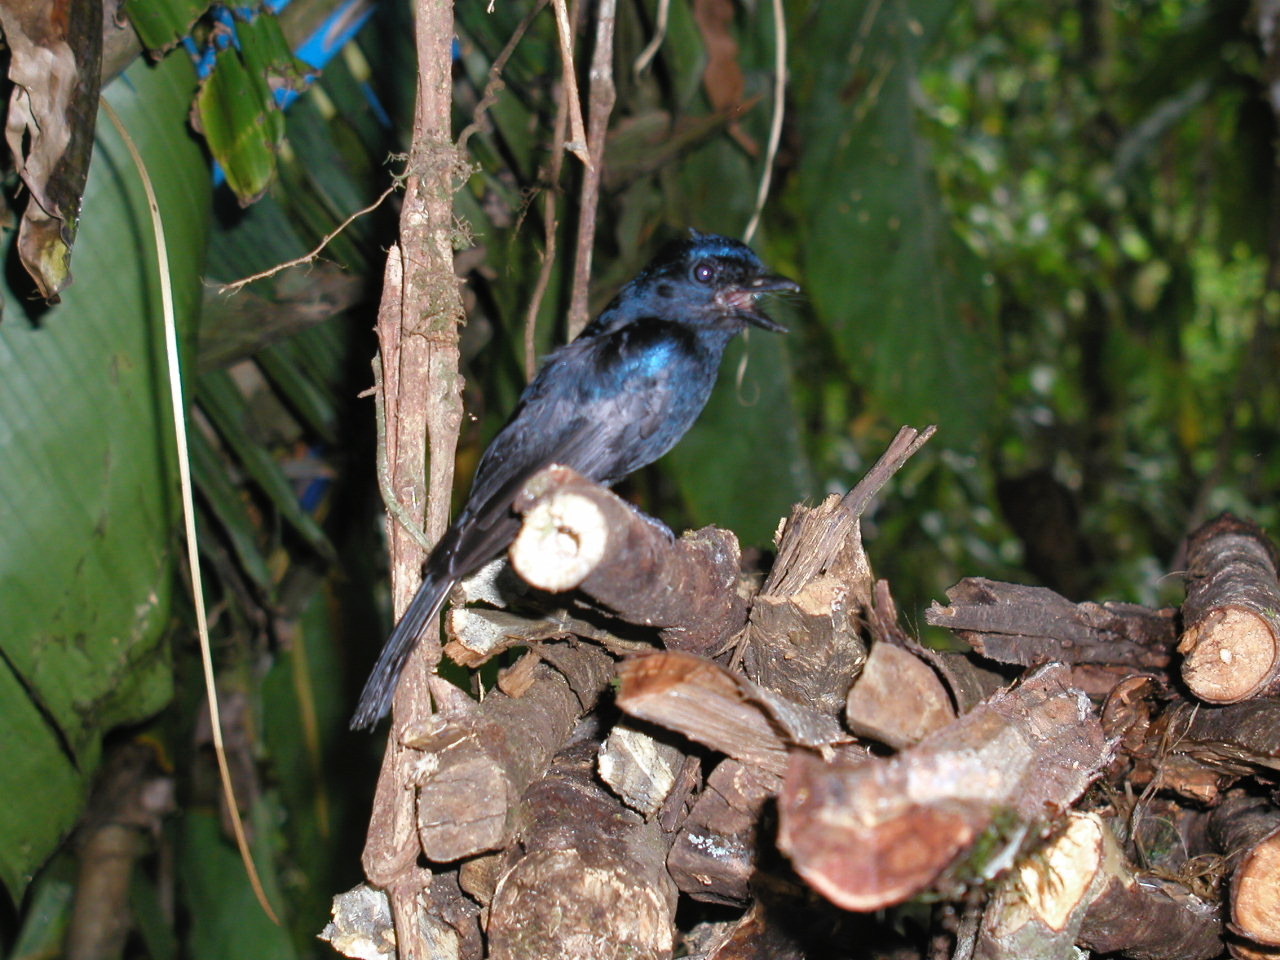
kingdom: Animalia
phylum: Chordata
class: Aves
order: Passeriformes
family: Dicruridae
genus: Chaetorhynchus
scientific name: Chaetorhynchus papuensis
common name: Pygmy drongo
